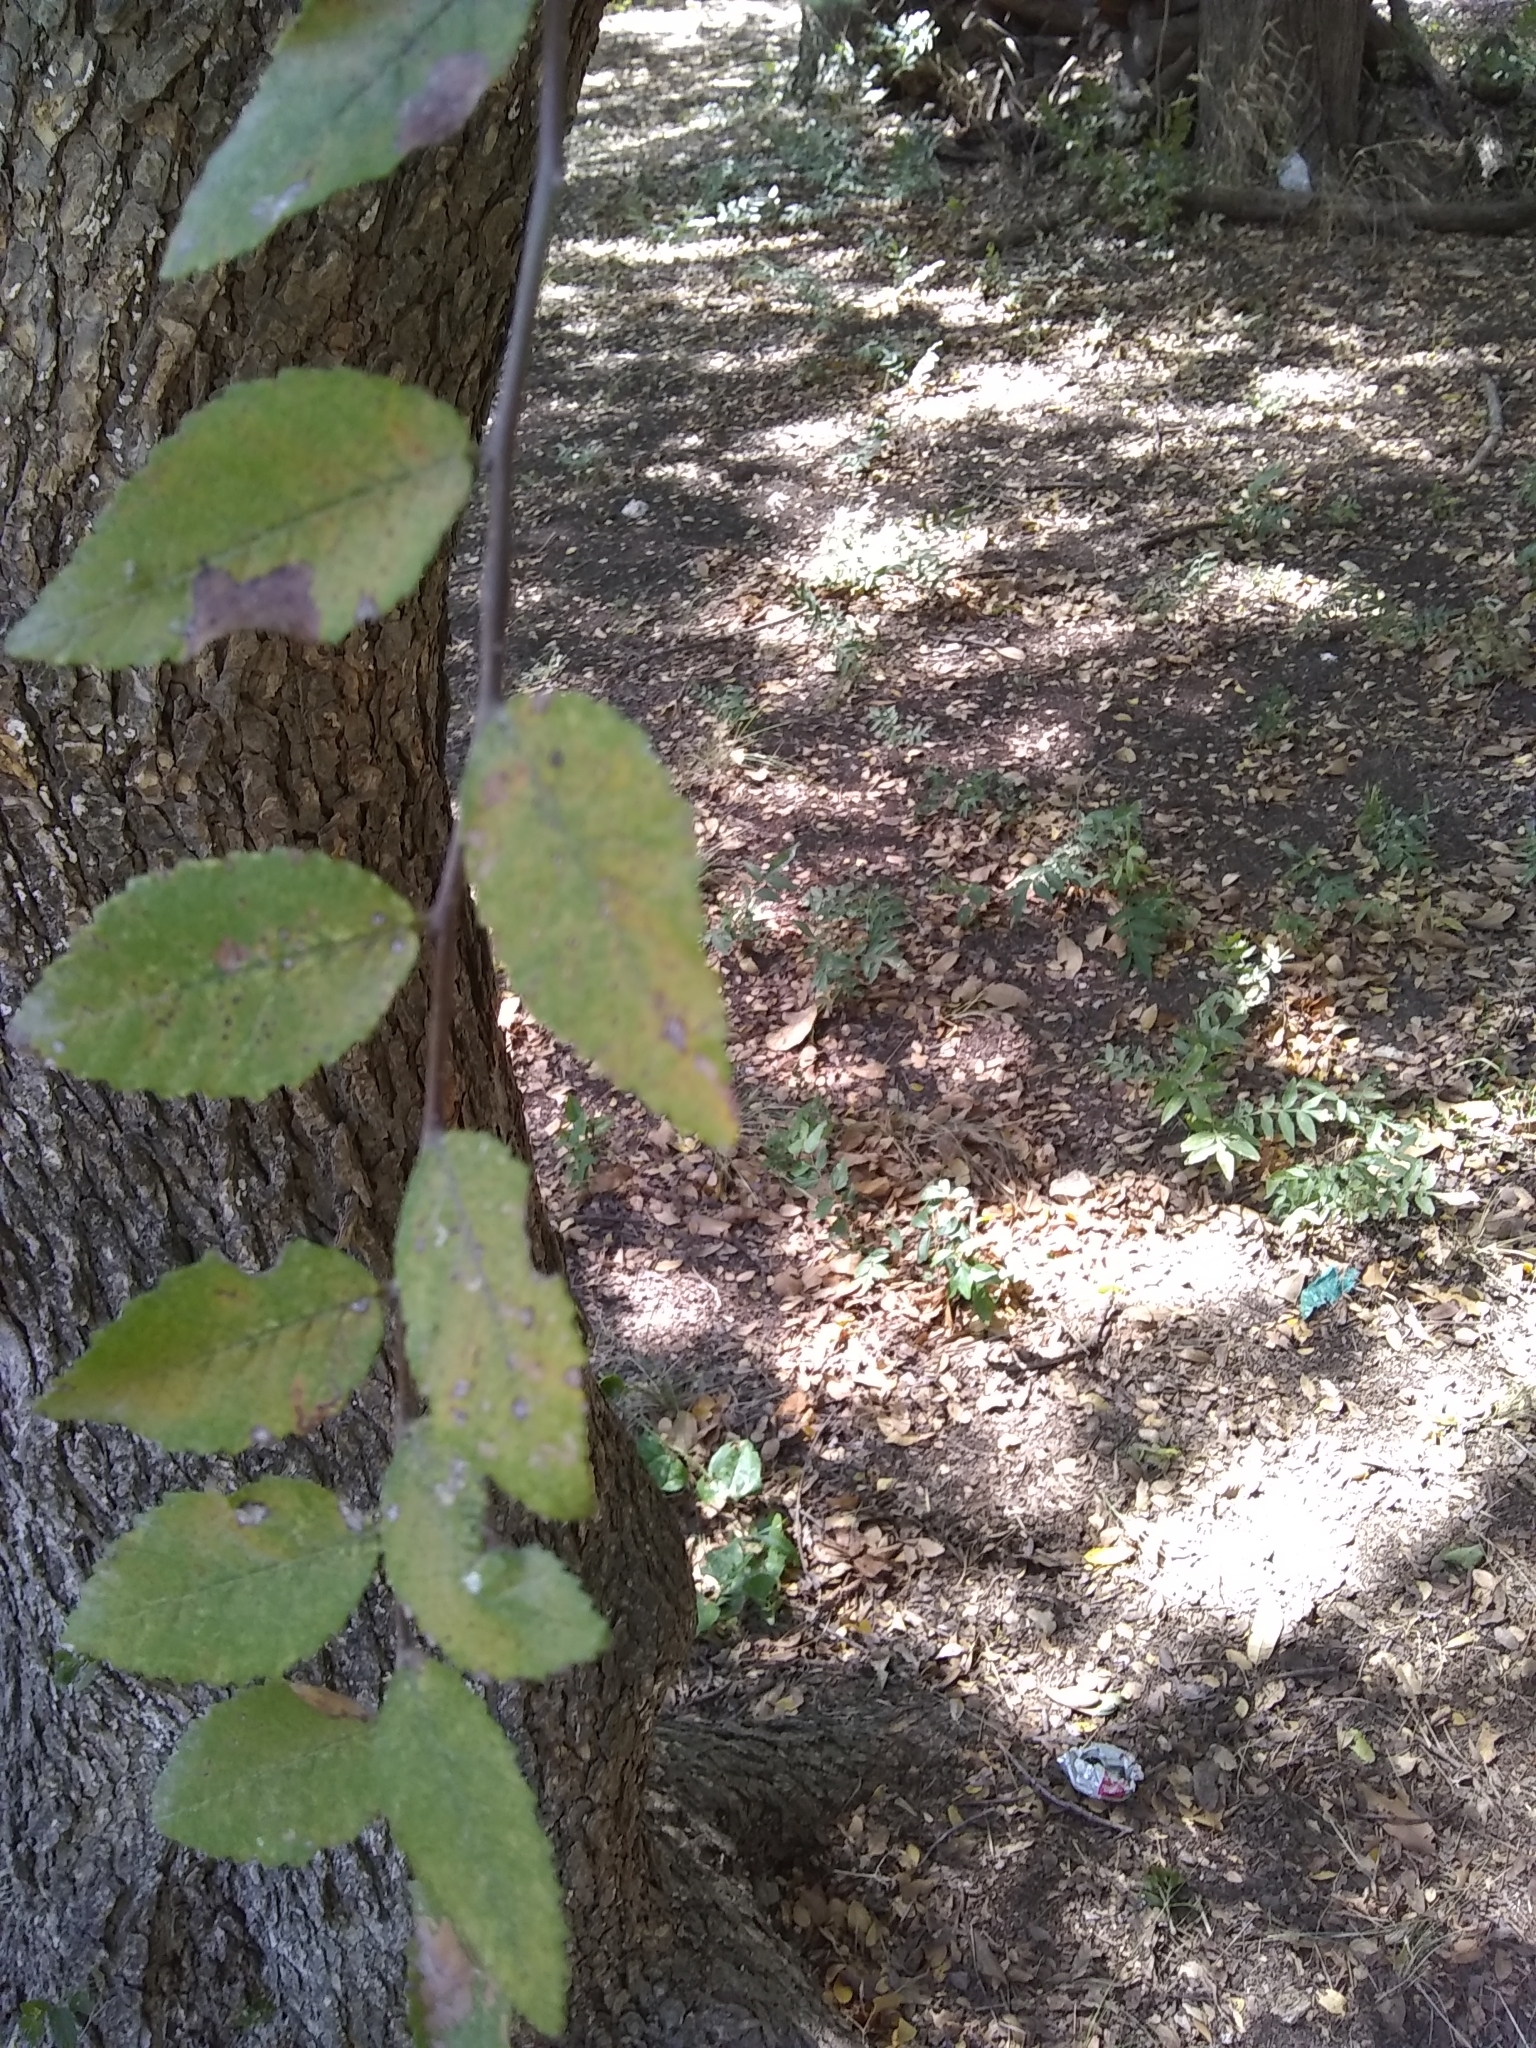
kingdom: Plantae
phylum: Tracheophyta
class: Magnoliopsida
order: Rosales
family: Ulmaceae
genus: Ulmus
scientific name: Ulmus crassifolia
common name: Basket elm
